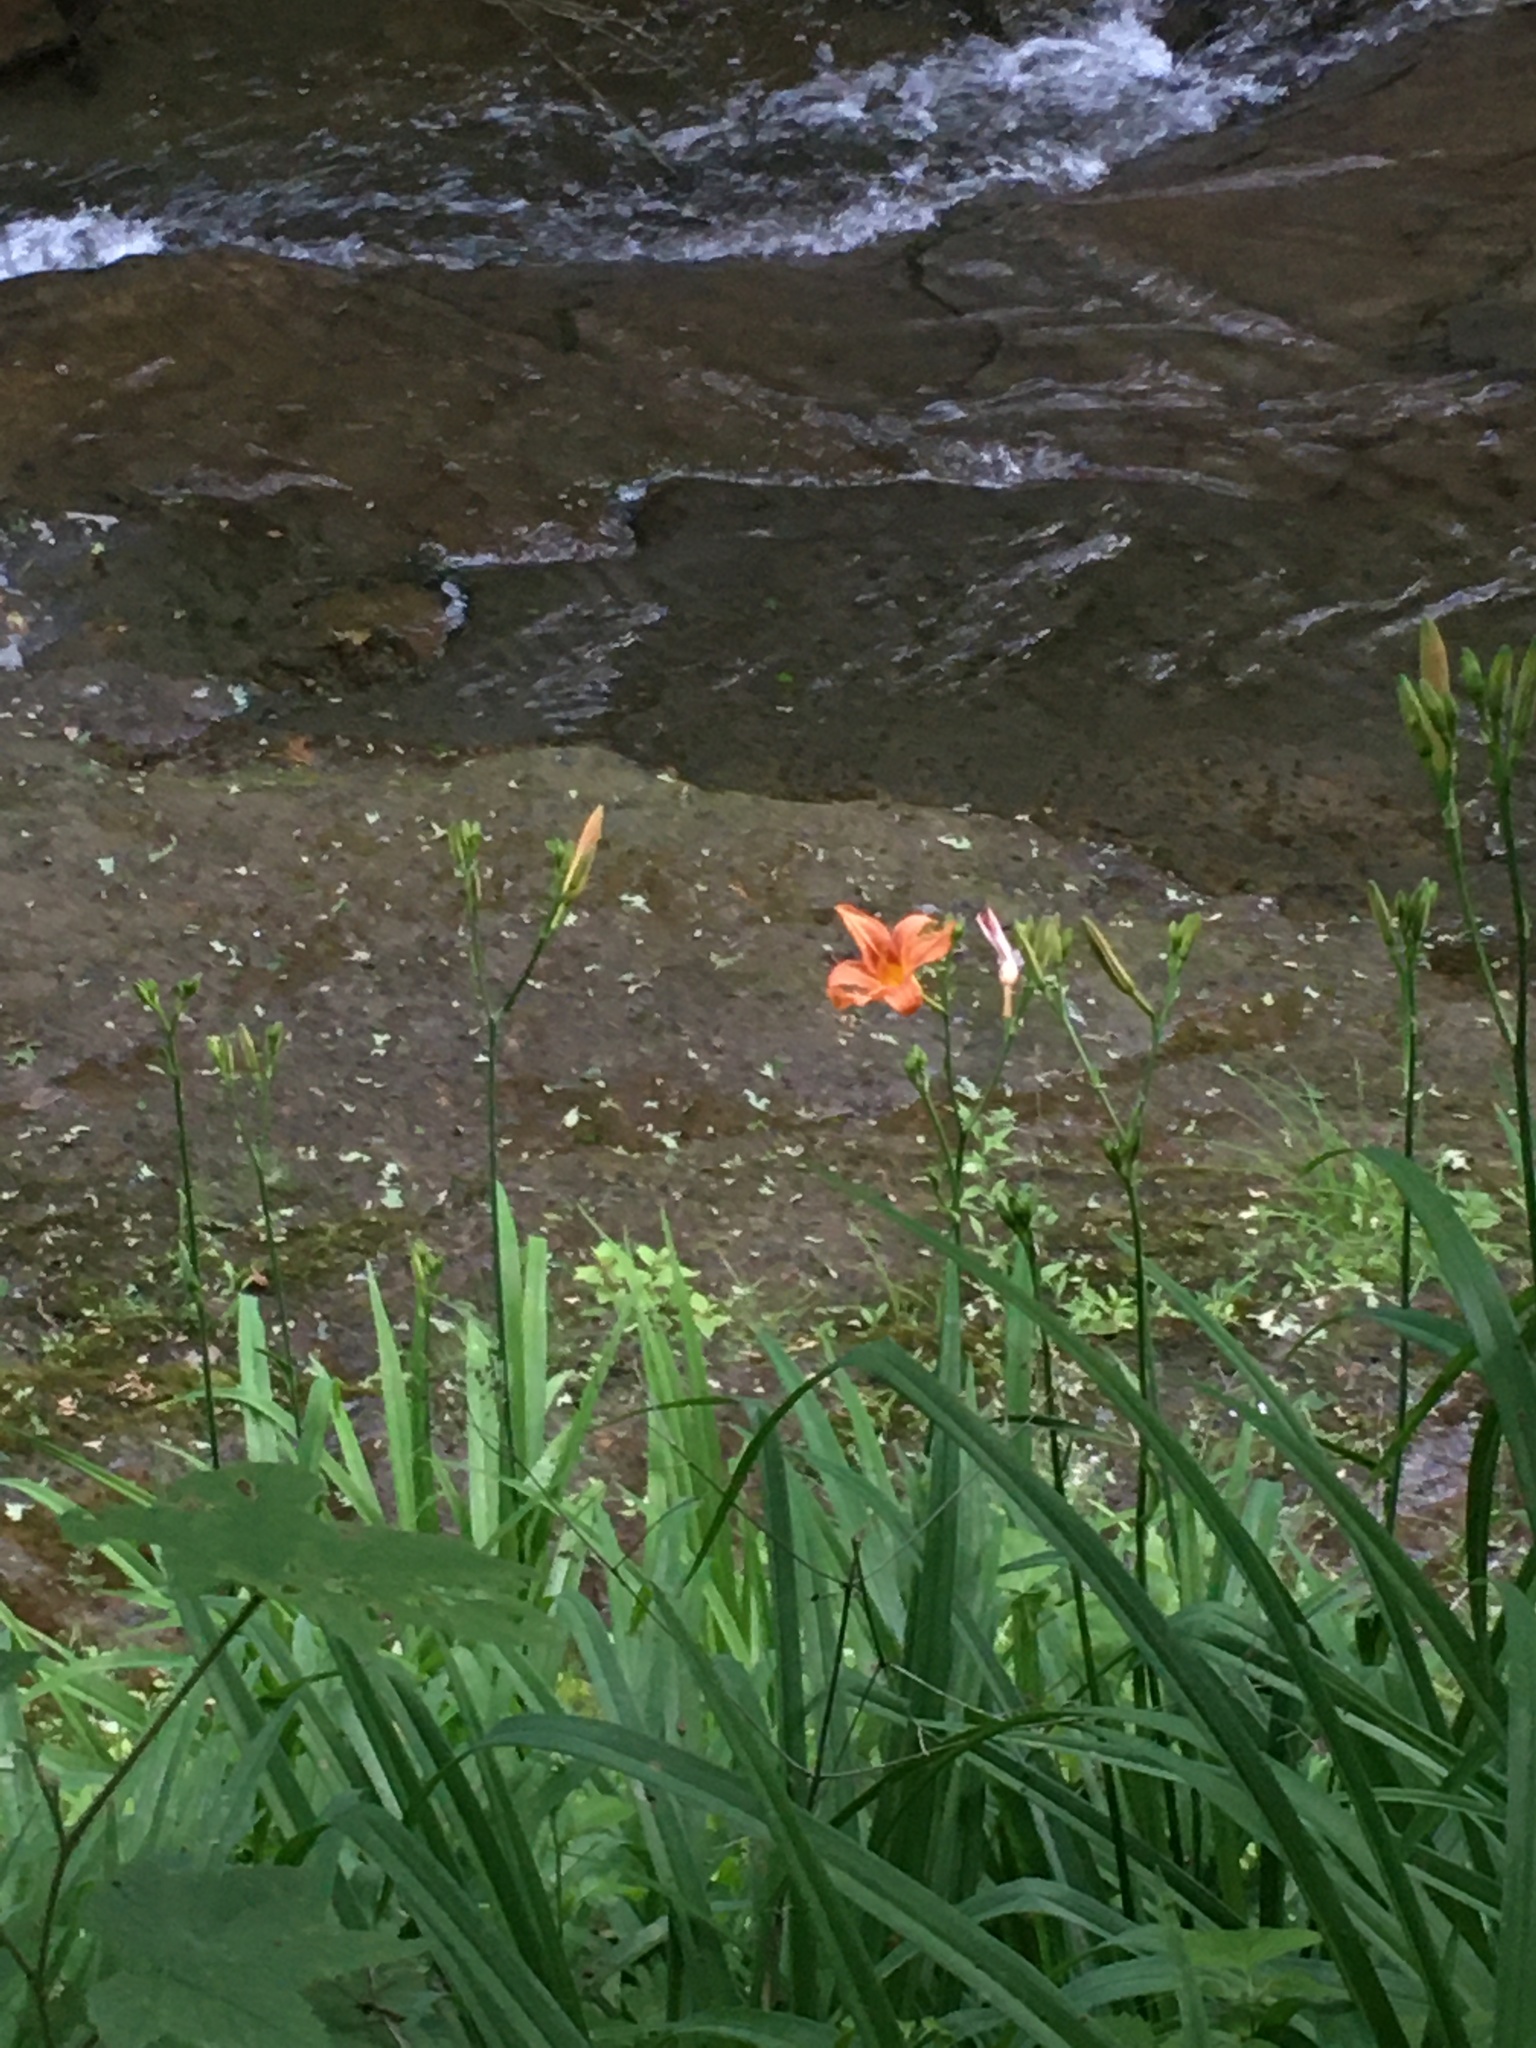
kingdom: Plantae
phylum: Tracheophyta
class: Liliopsida
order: Asparagales
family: Asphodelaceae
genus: Hemerocallis
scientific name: Hemerocallis fulva
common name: Orange day-lily
